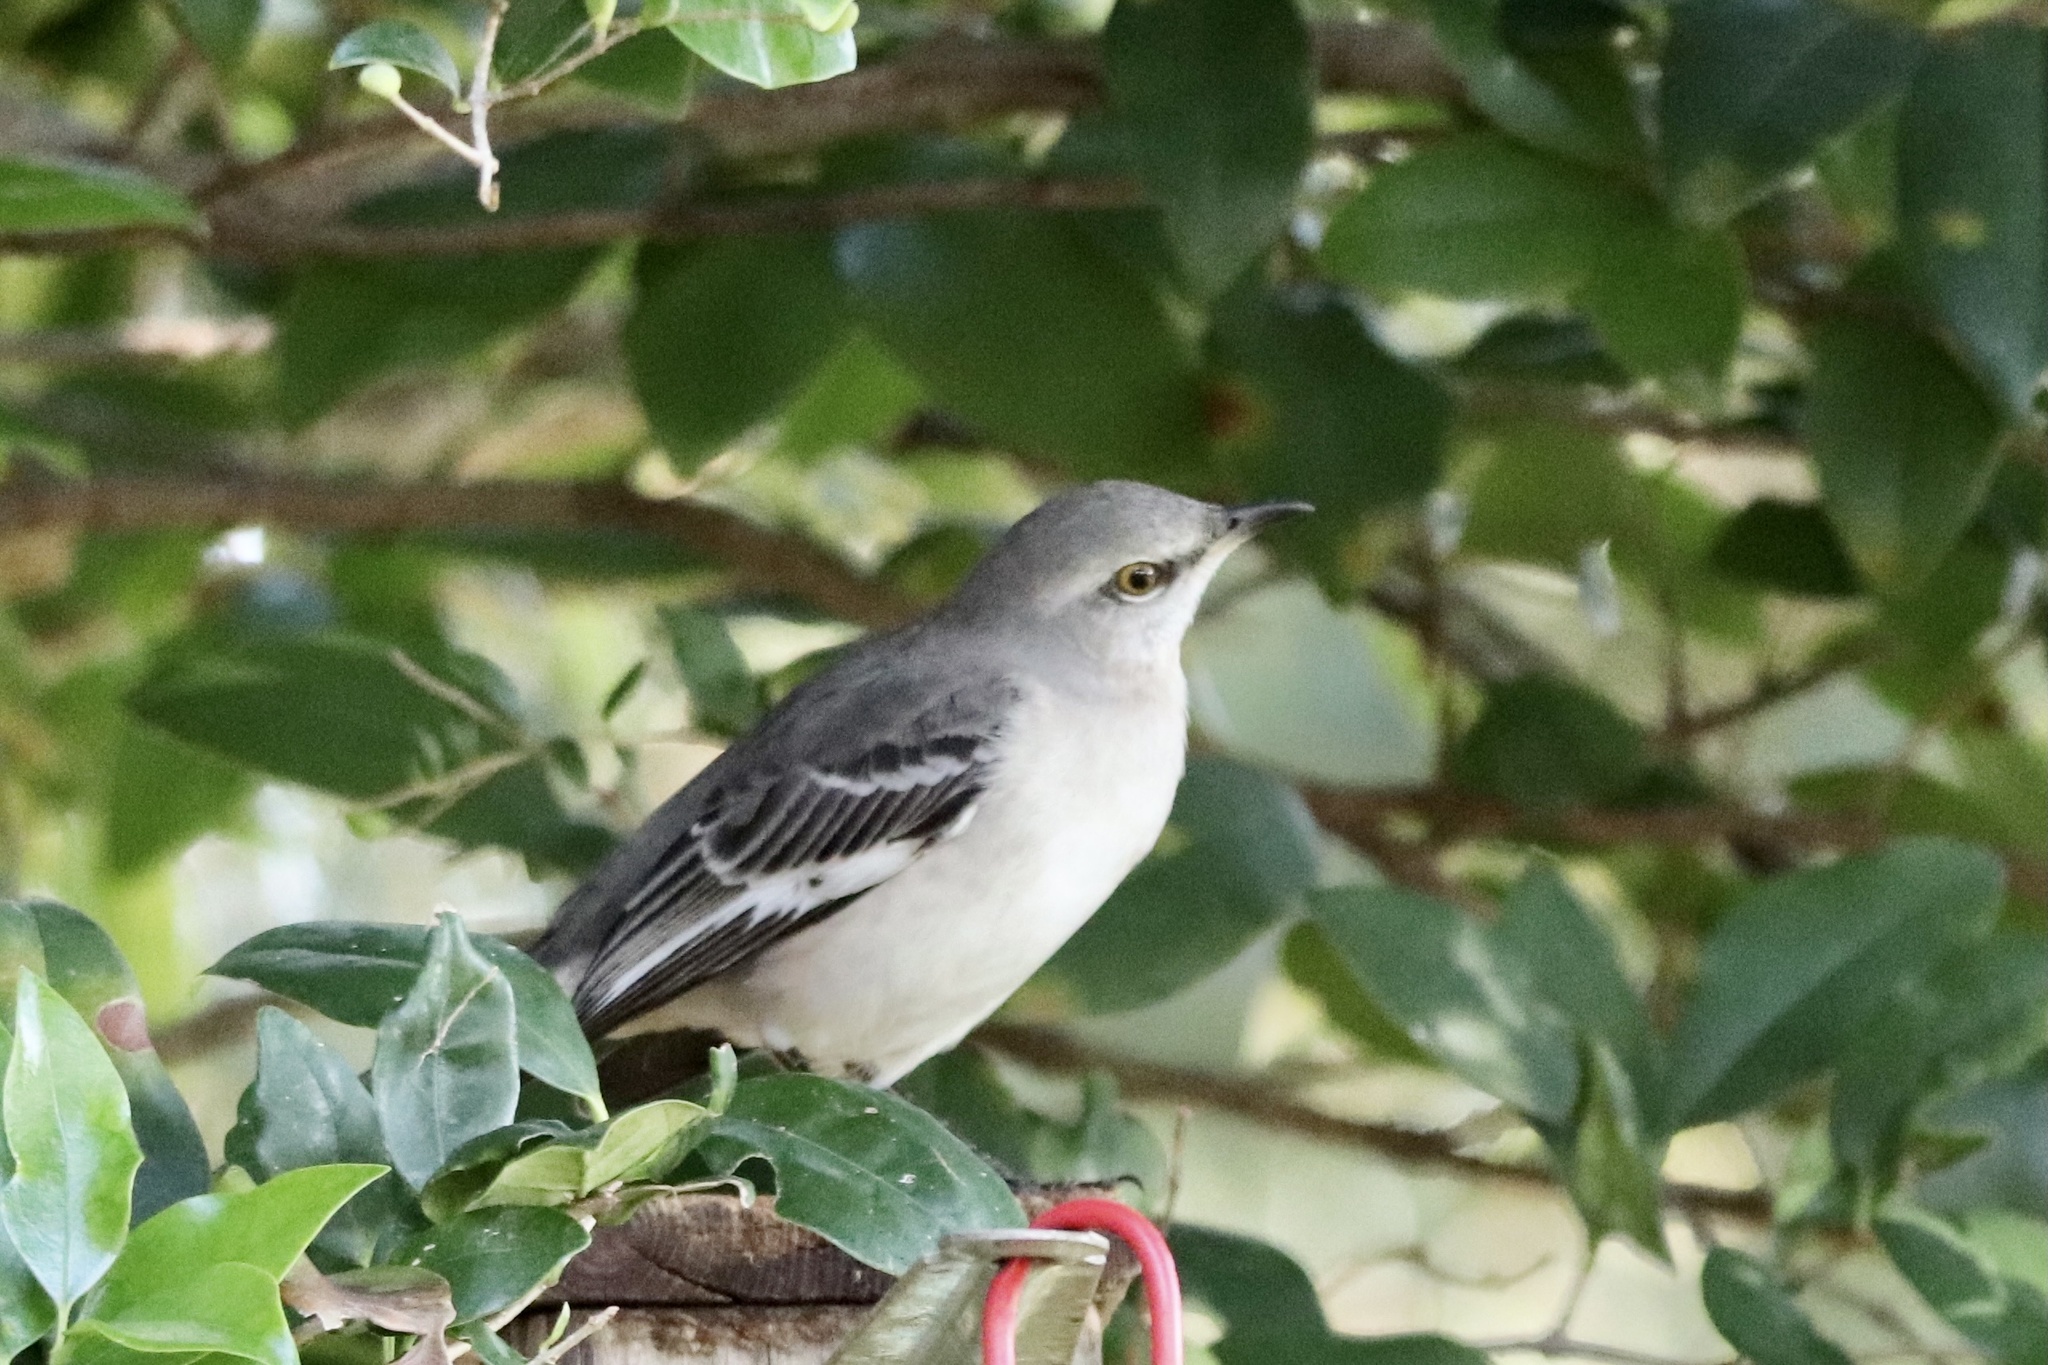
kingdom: Animalia
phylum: Chordata
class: Aves
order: Passeriformes
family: Mimidae
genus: Mimus
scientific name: Mimus polyglottos
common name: Northern mockingbird
